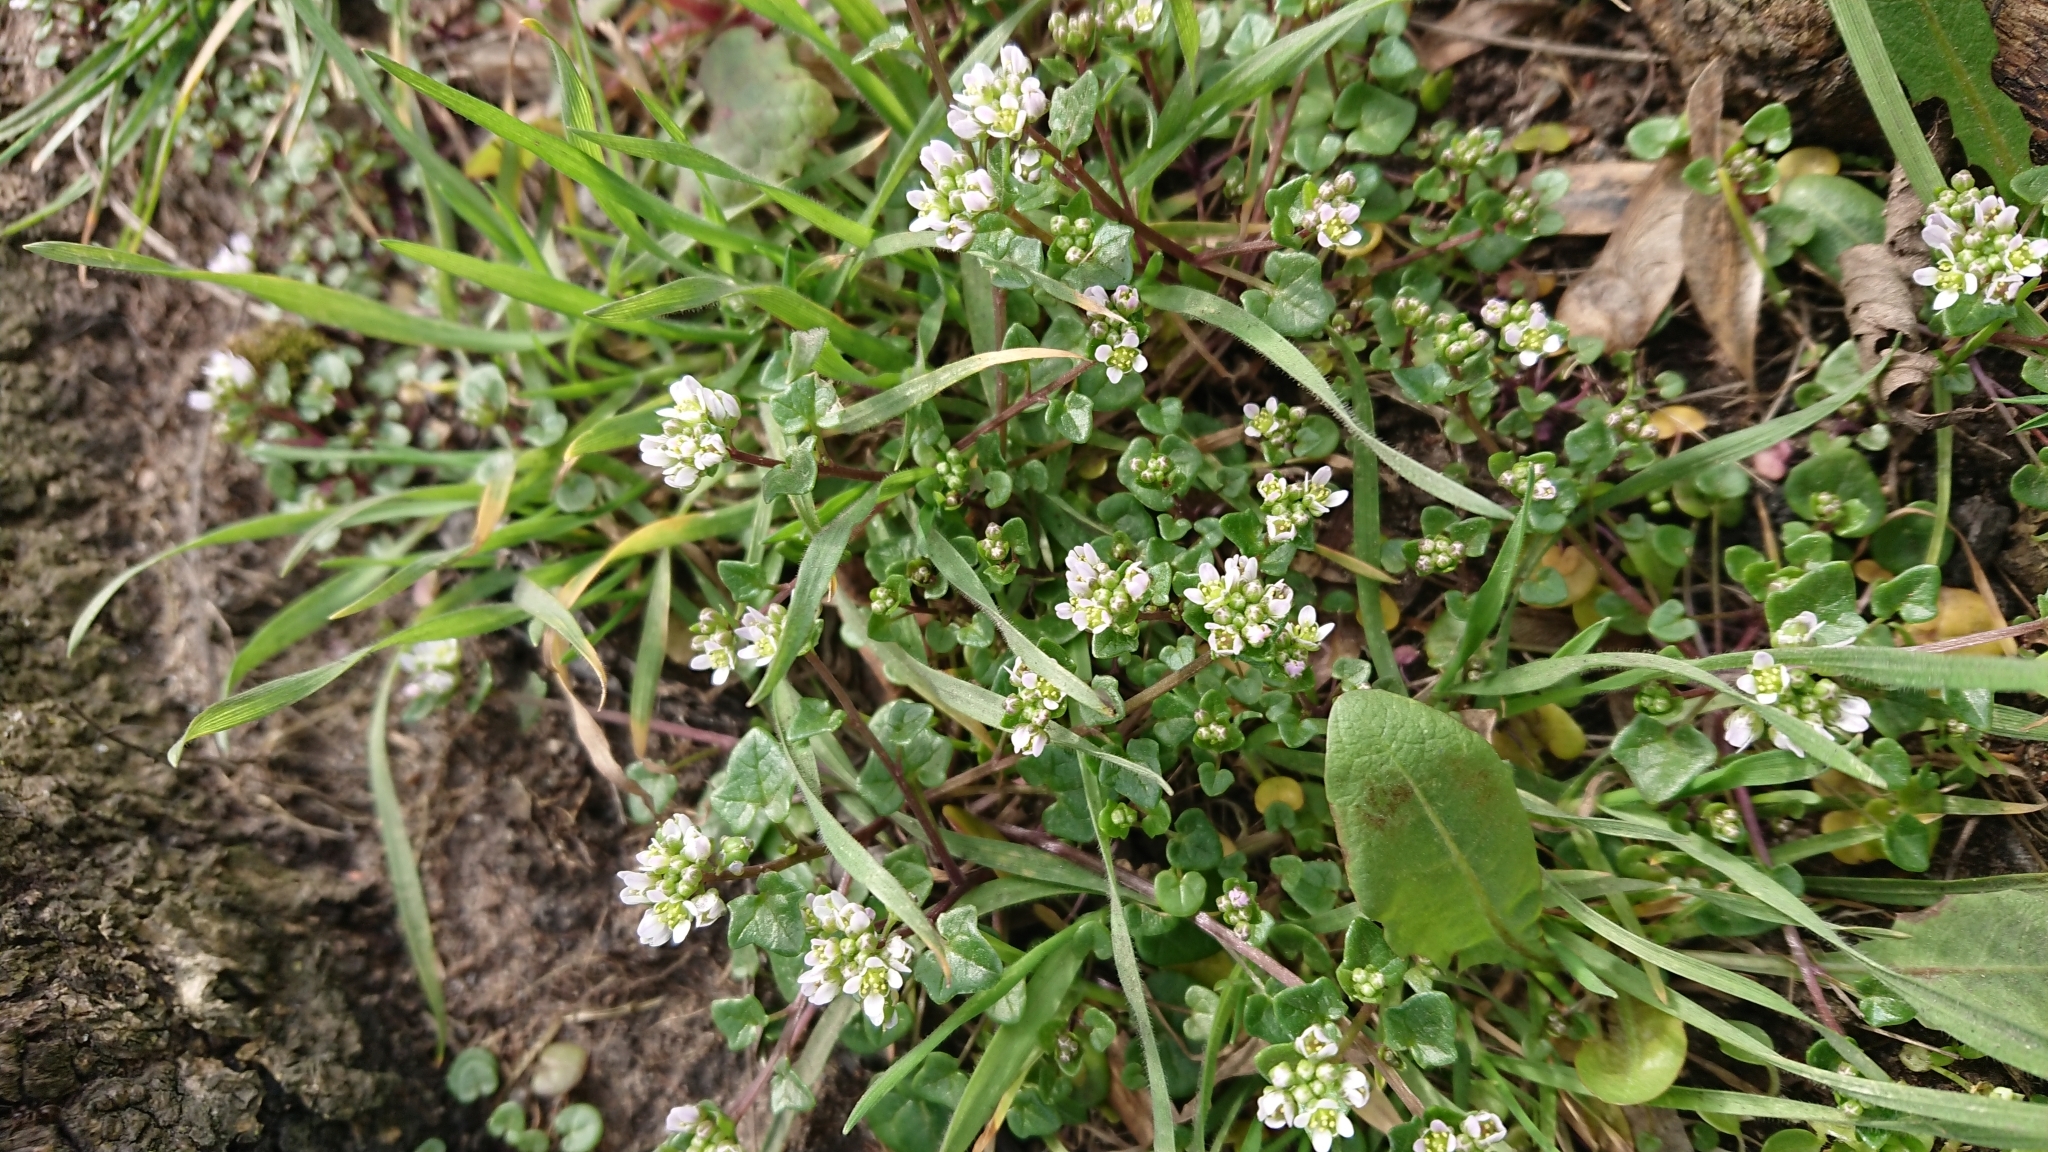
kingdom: Plantae
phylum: Tracheophyta
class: Magnoliopsida
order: Brassicales
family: Brassicaceae
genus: Cochlearia
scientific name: Cochlearia danica
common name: Early scurvygrass
